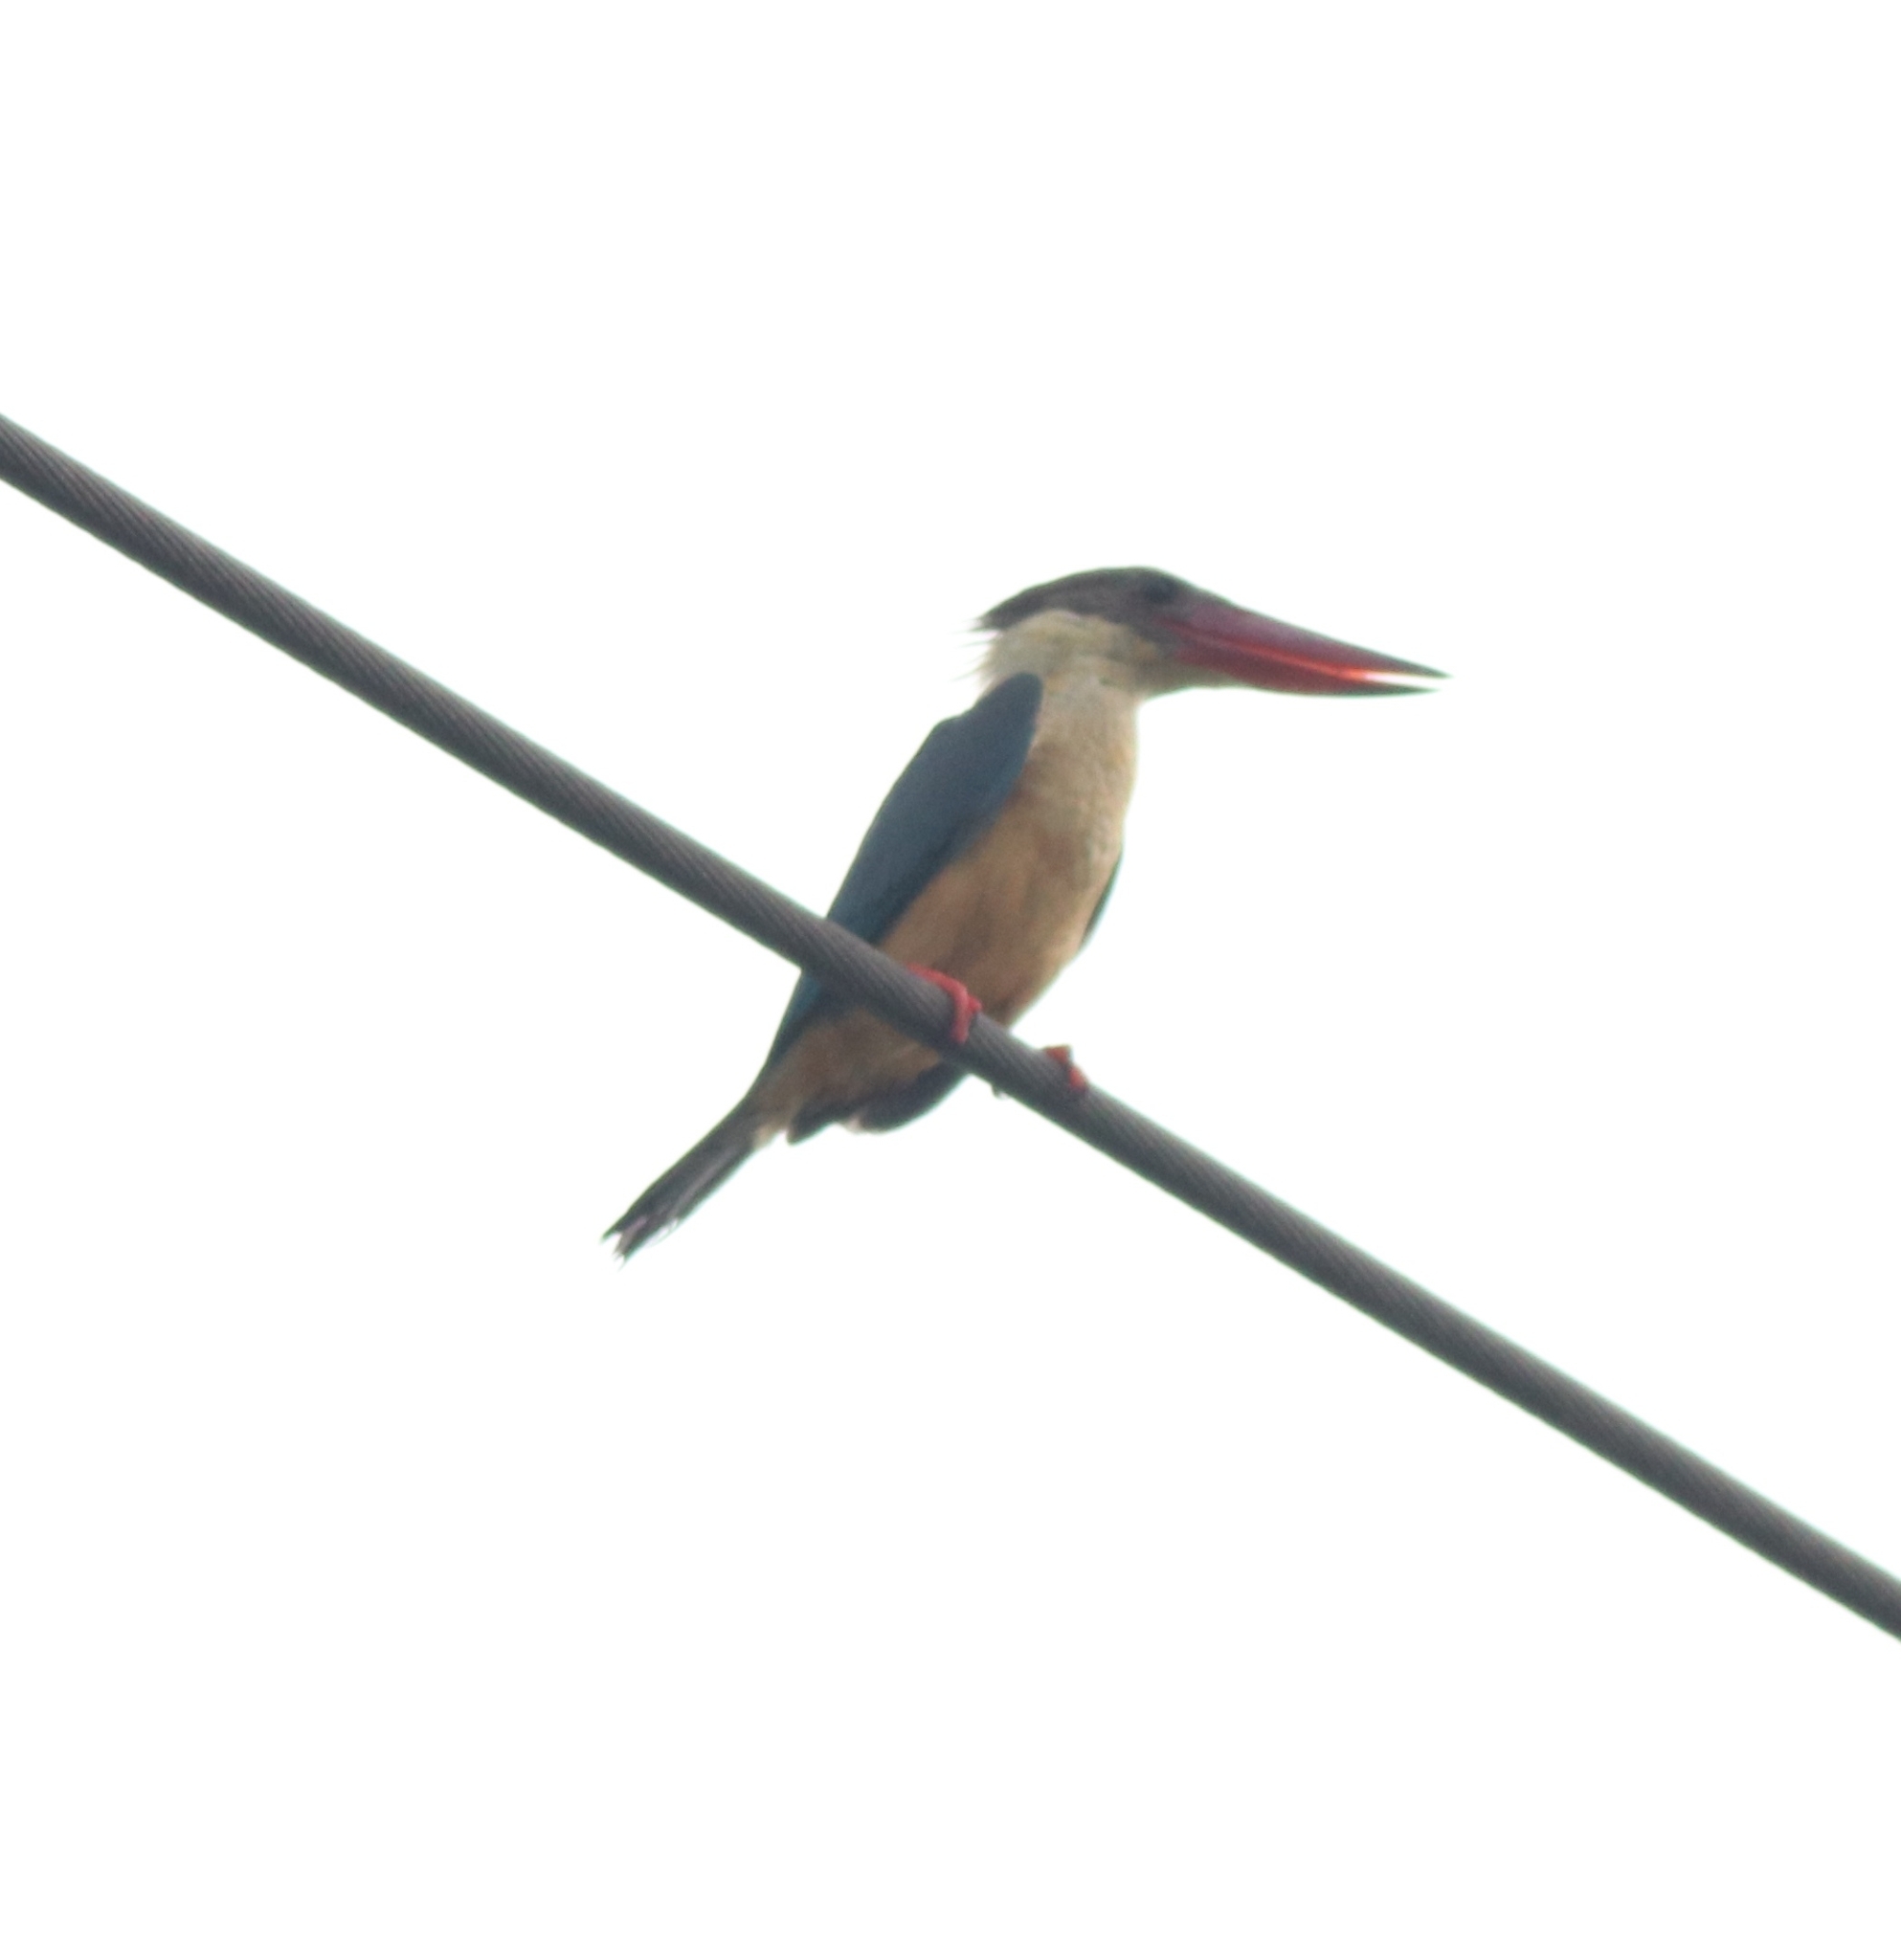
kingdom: Animalia
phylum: Chordata
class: Aves
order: Coraciiformes
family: Alcedinidae
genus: Pelargopsis
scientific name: Pelargopsis capensis
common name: Stork-billed kingfisher
